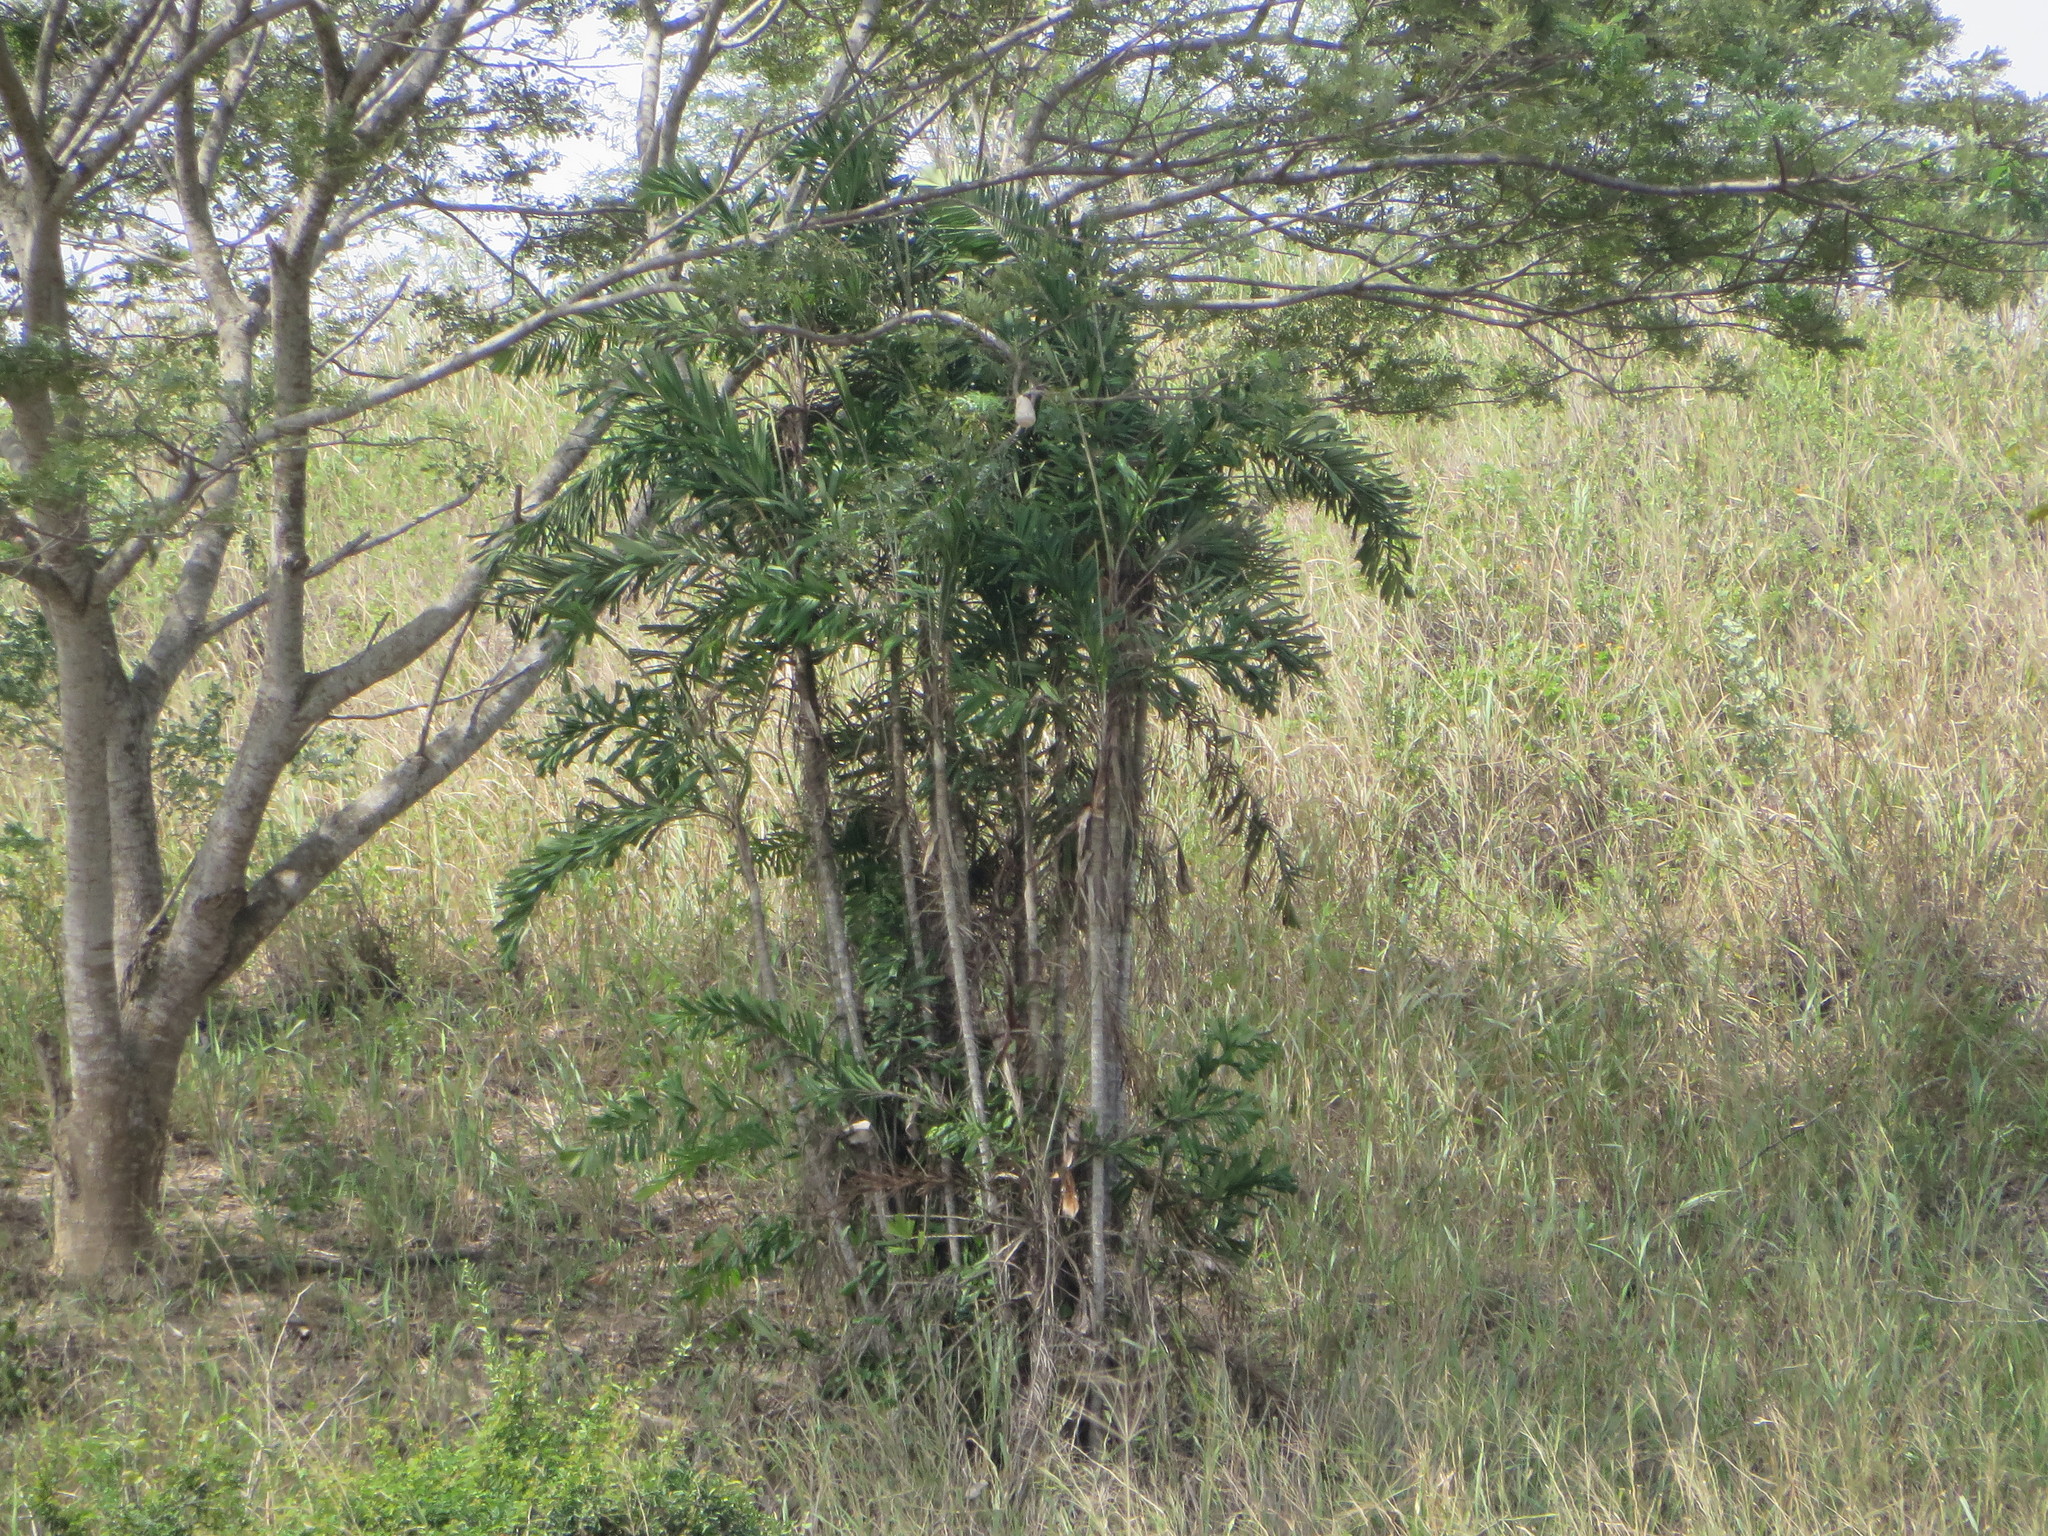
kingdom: Plantae
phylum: Tracheophyta
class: Liliopsida
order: Arecales
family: Arecaceae
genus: Aiphanes
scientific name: Aiphanes eggersii
